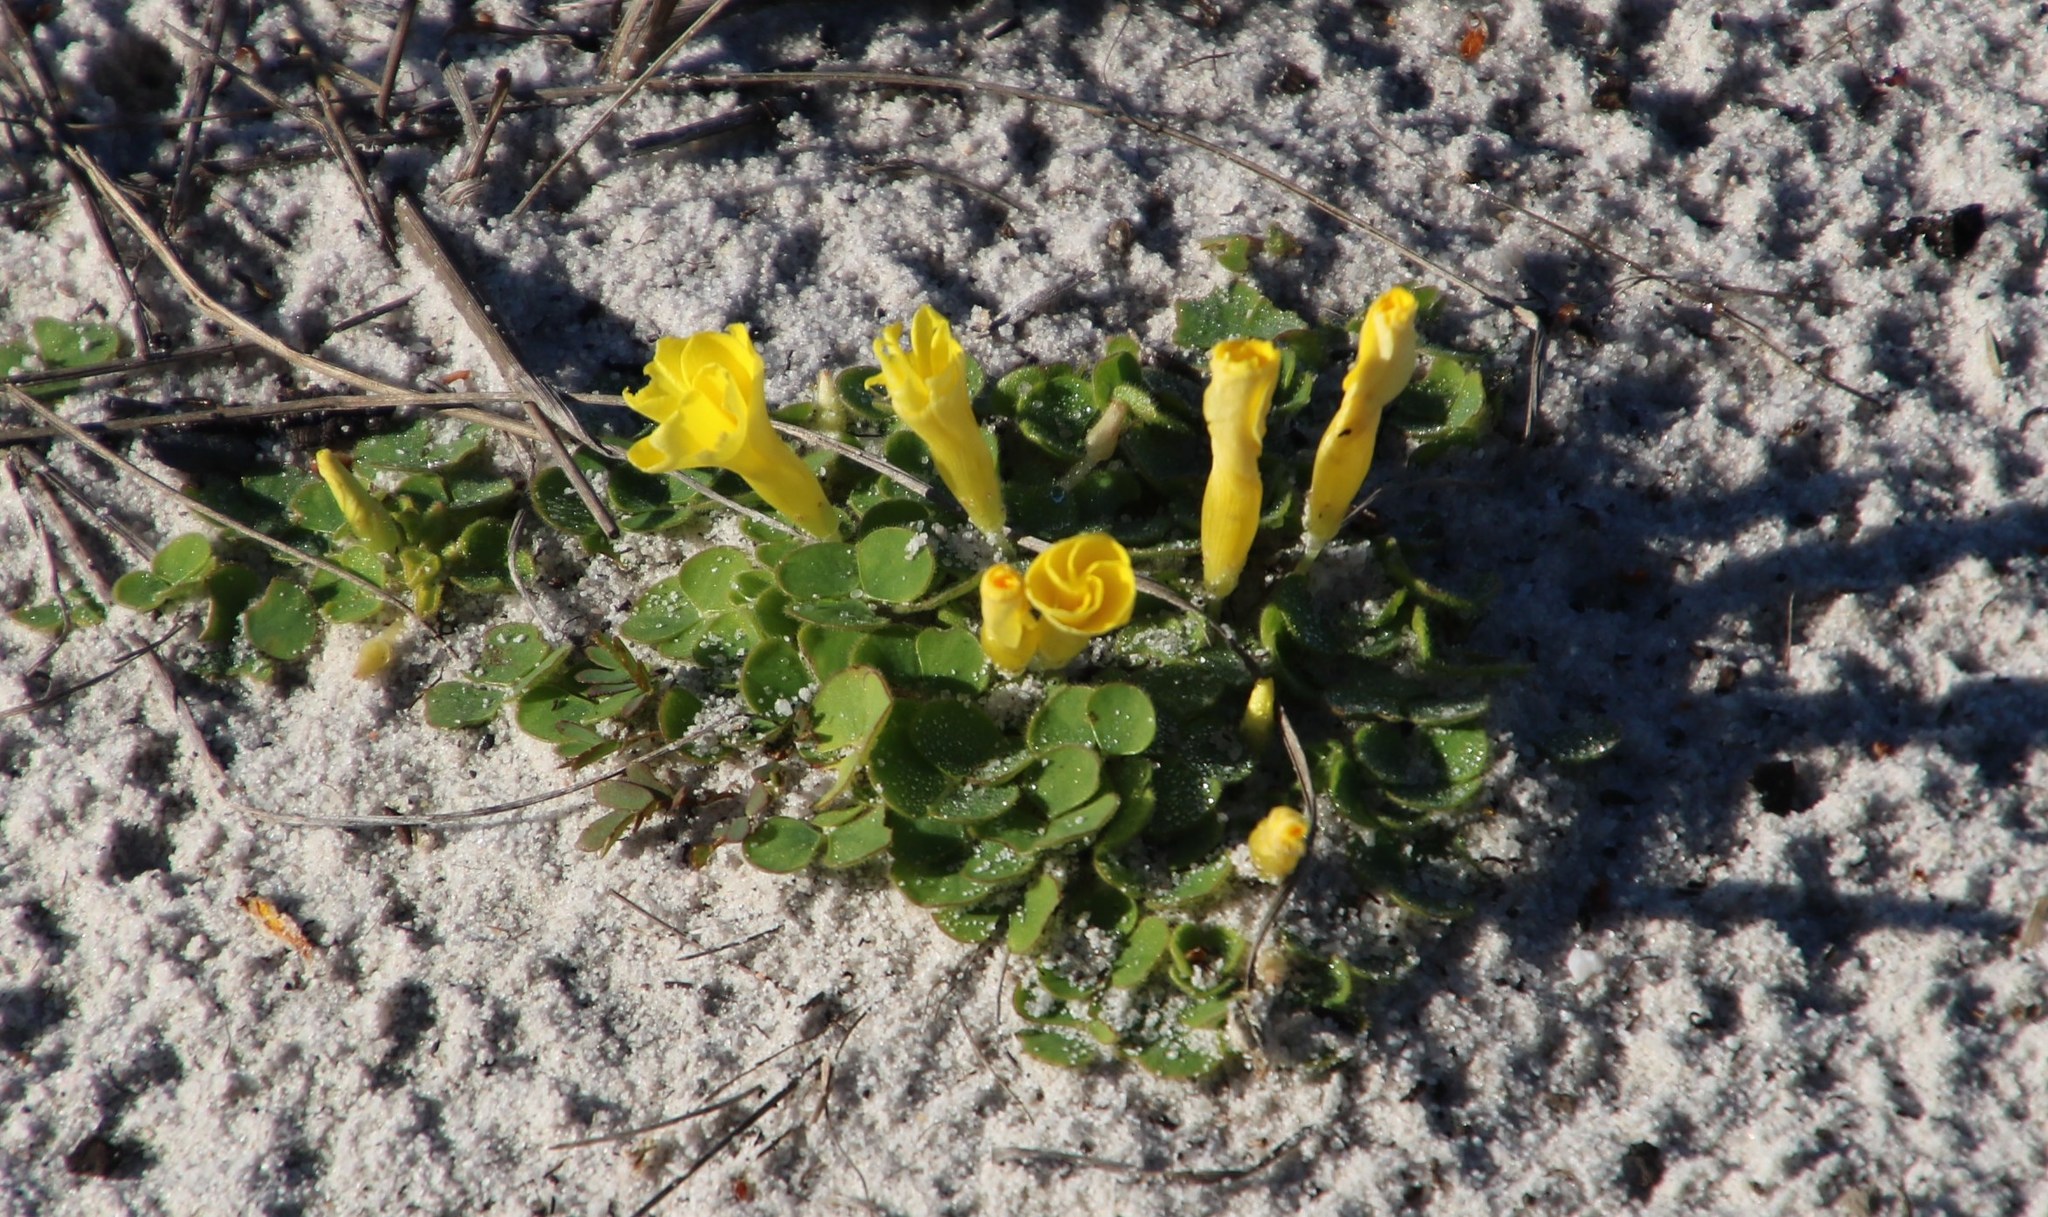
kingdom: Plantae
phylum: Tracheophyta
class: Magnoliopsida
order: Oxalidales
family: Oxalidaceae
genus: Oxalis
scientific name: Oxalis luteola
